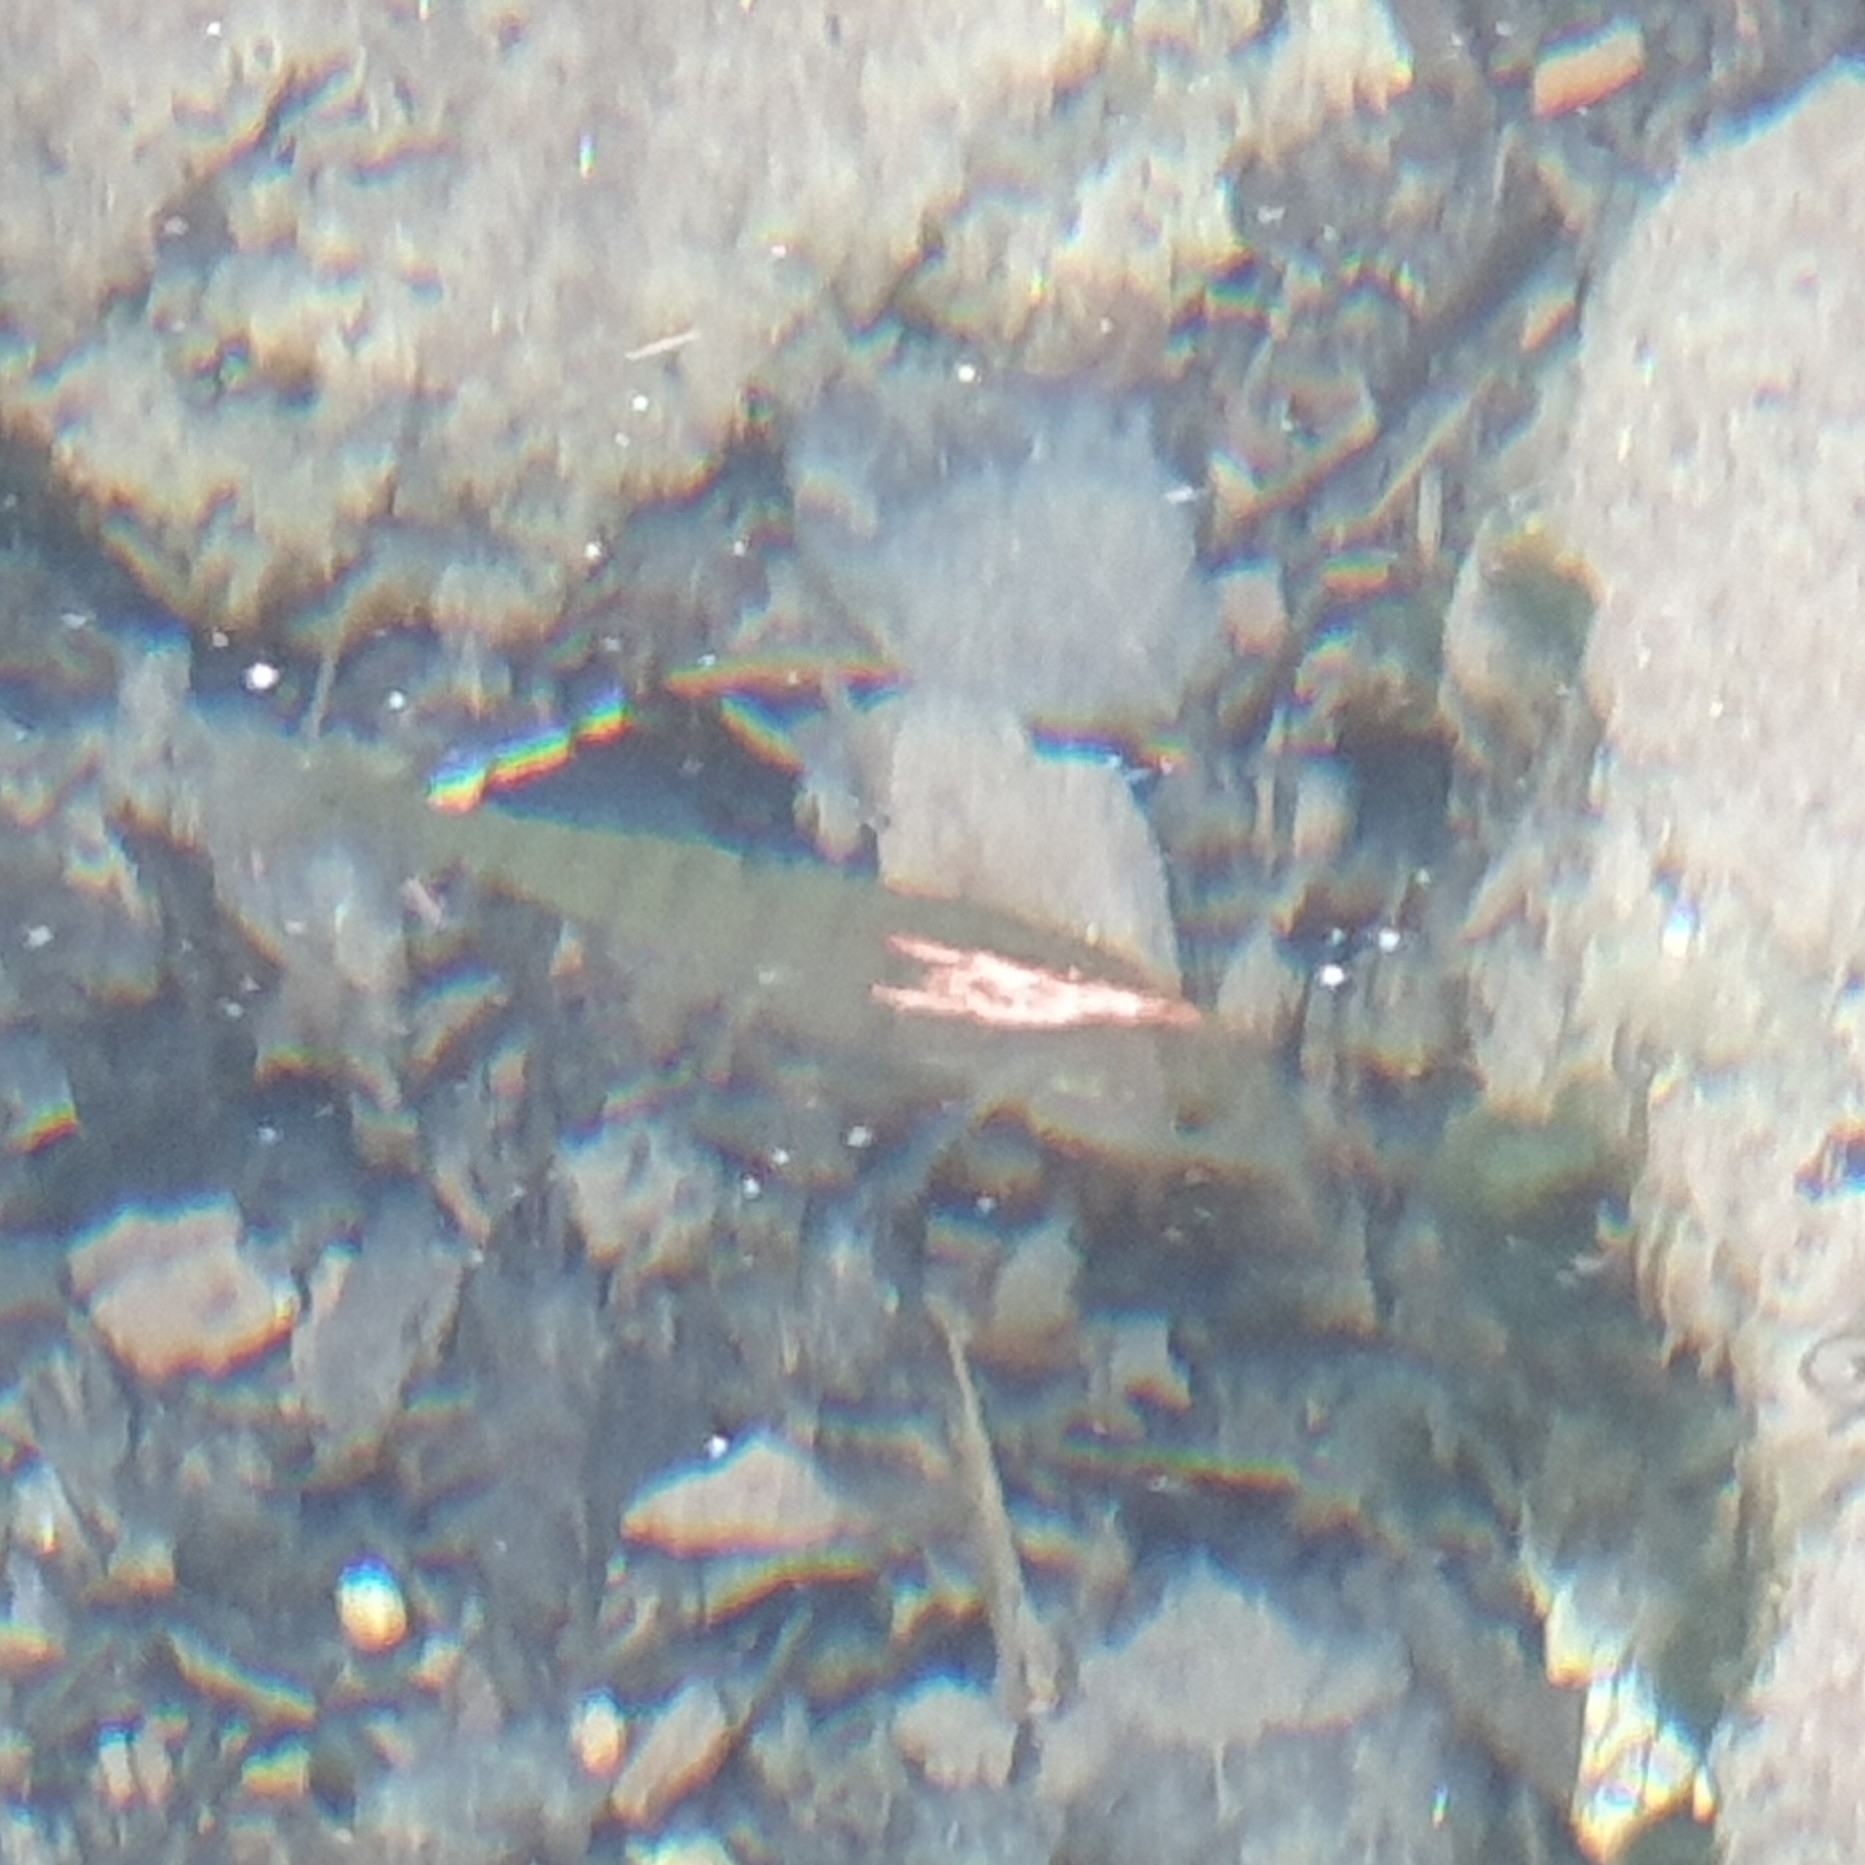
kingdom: Animalia
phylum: Chordata
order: Perciformes
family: Percidae
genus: Perca
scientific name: Perca fluviatilis
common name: Perch
